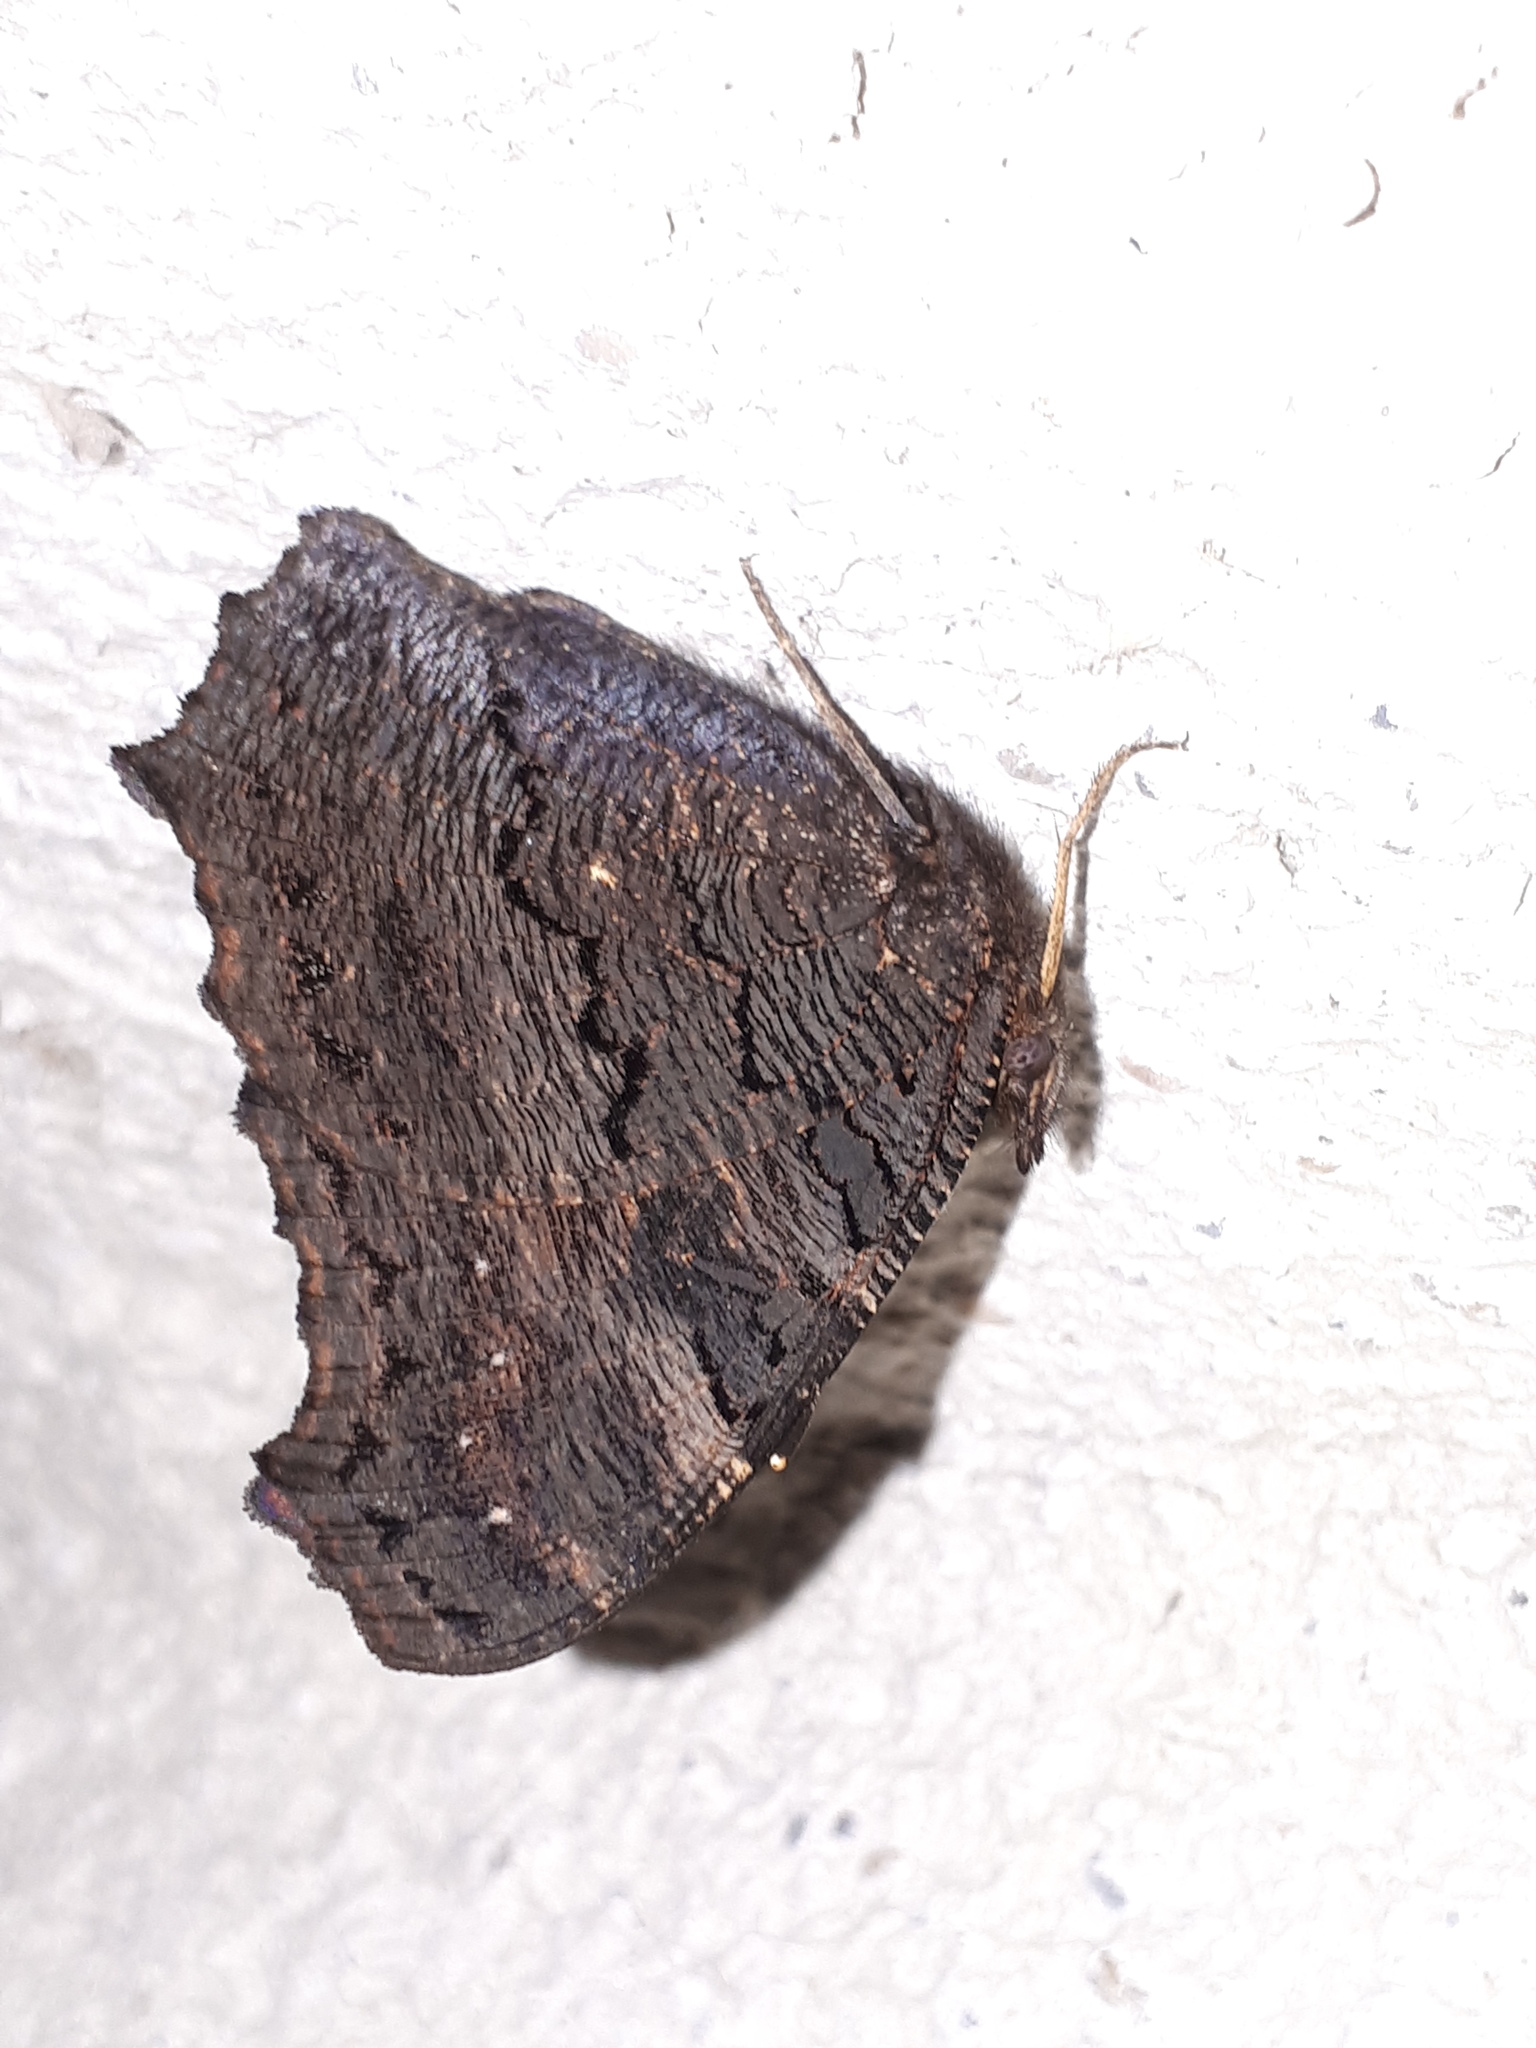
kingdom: Animalia
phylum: Arthropoda
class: Insecta
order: Lepidoptera
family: Nymphalidae
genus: Aglais
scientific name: Aglais io
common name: Peacock
